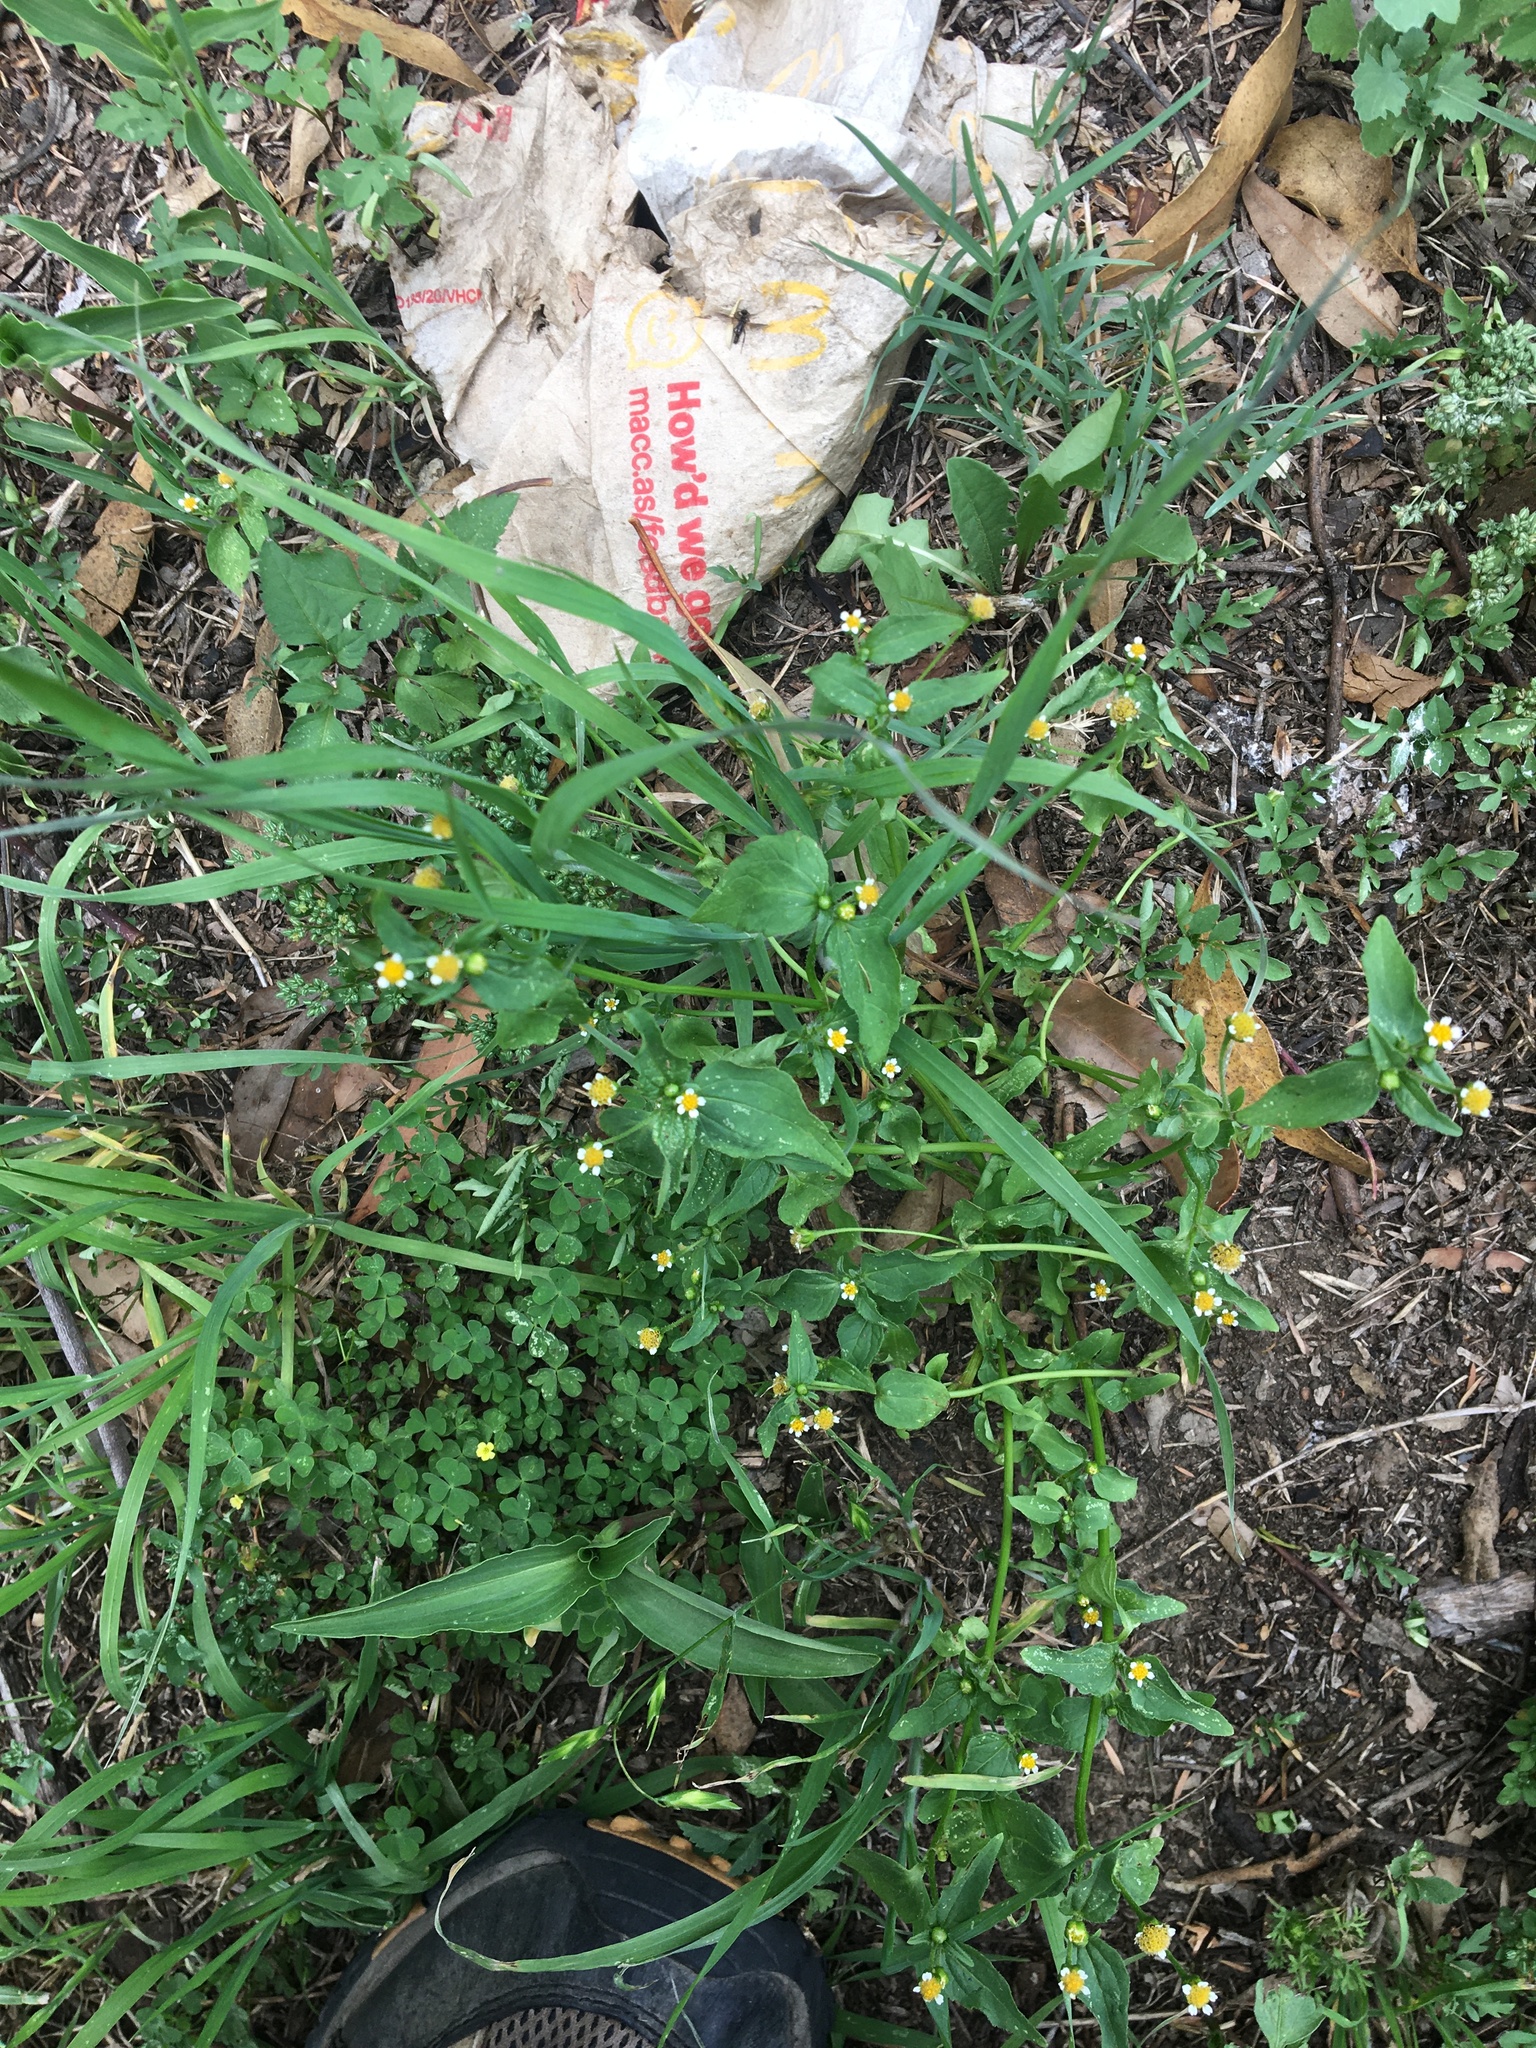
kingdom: Plantae
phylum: Tracheophyta
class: Magnoliopsida
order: Asterales
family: Asteraceae
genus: Galinsoga
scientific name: Galinsoga parviflora
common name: Gallant soldier
